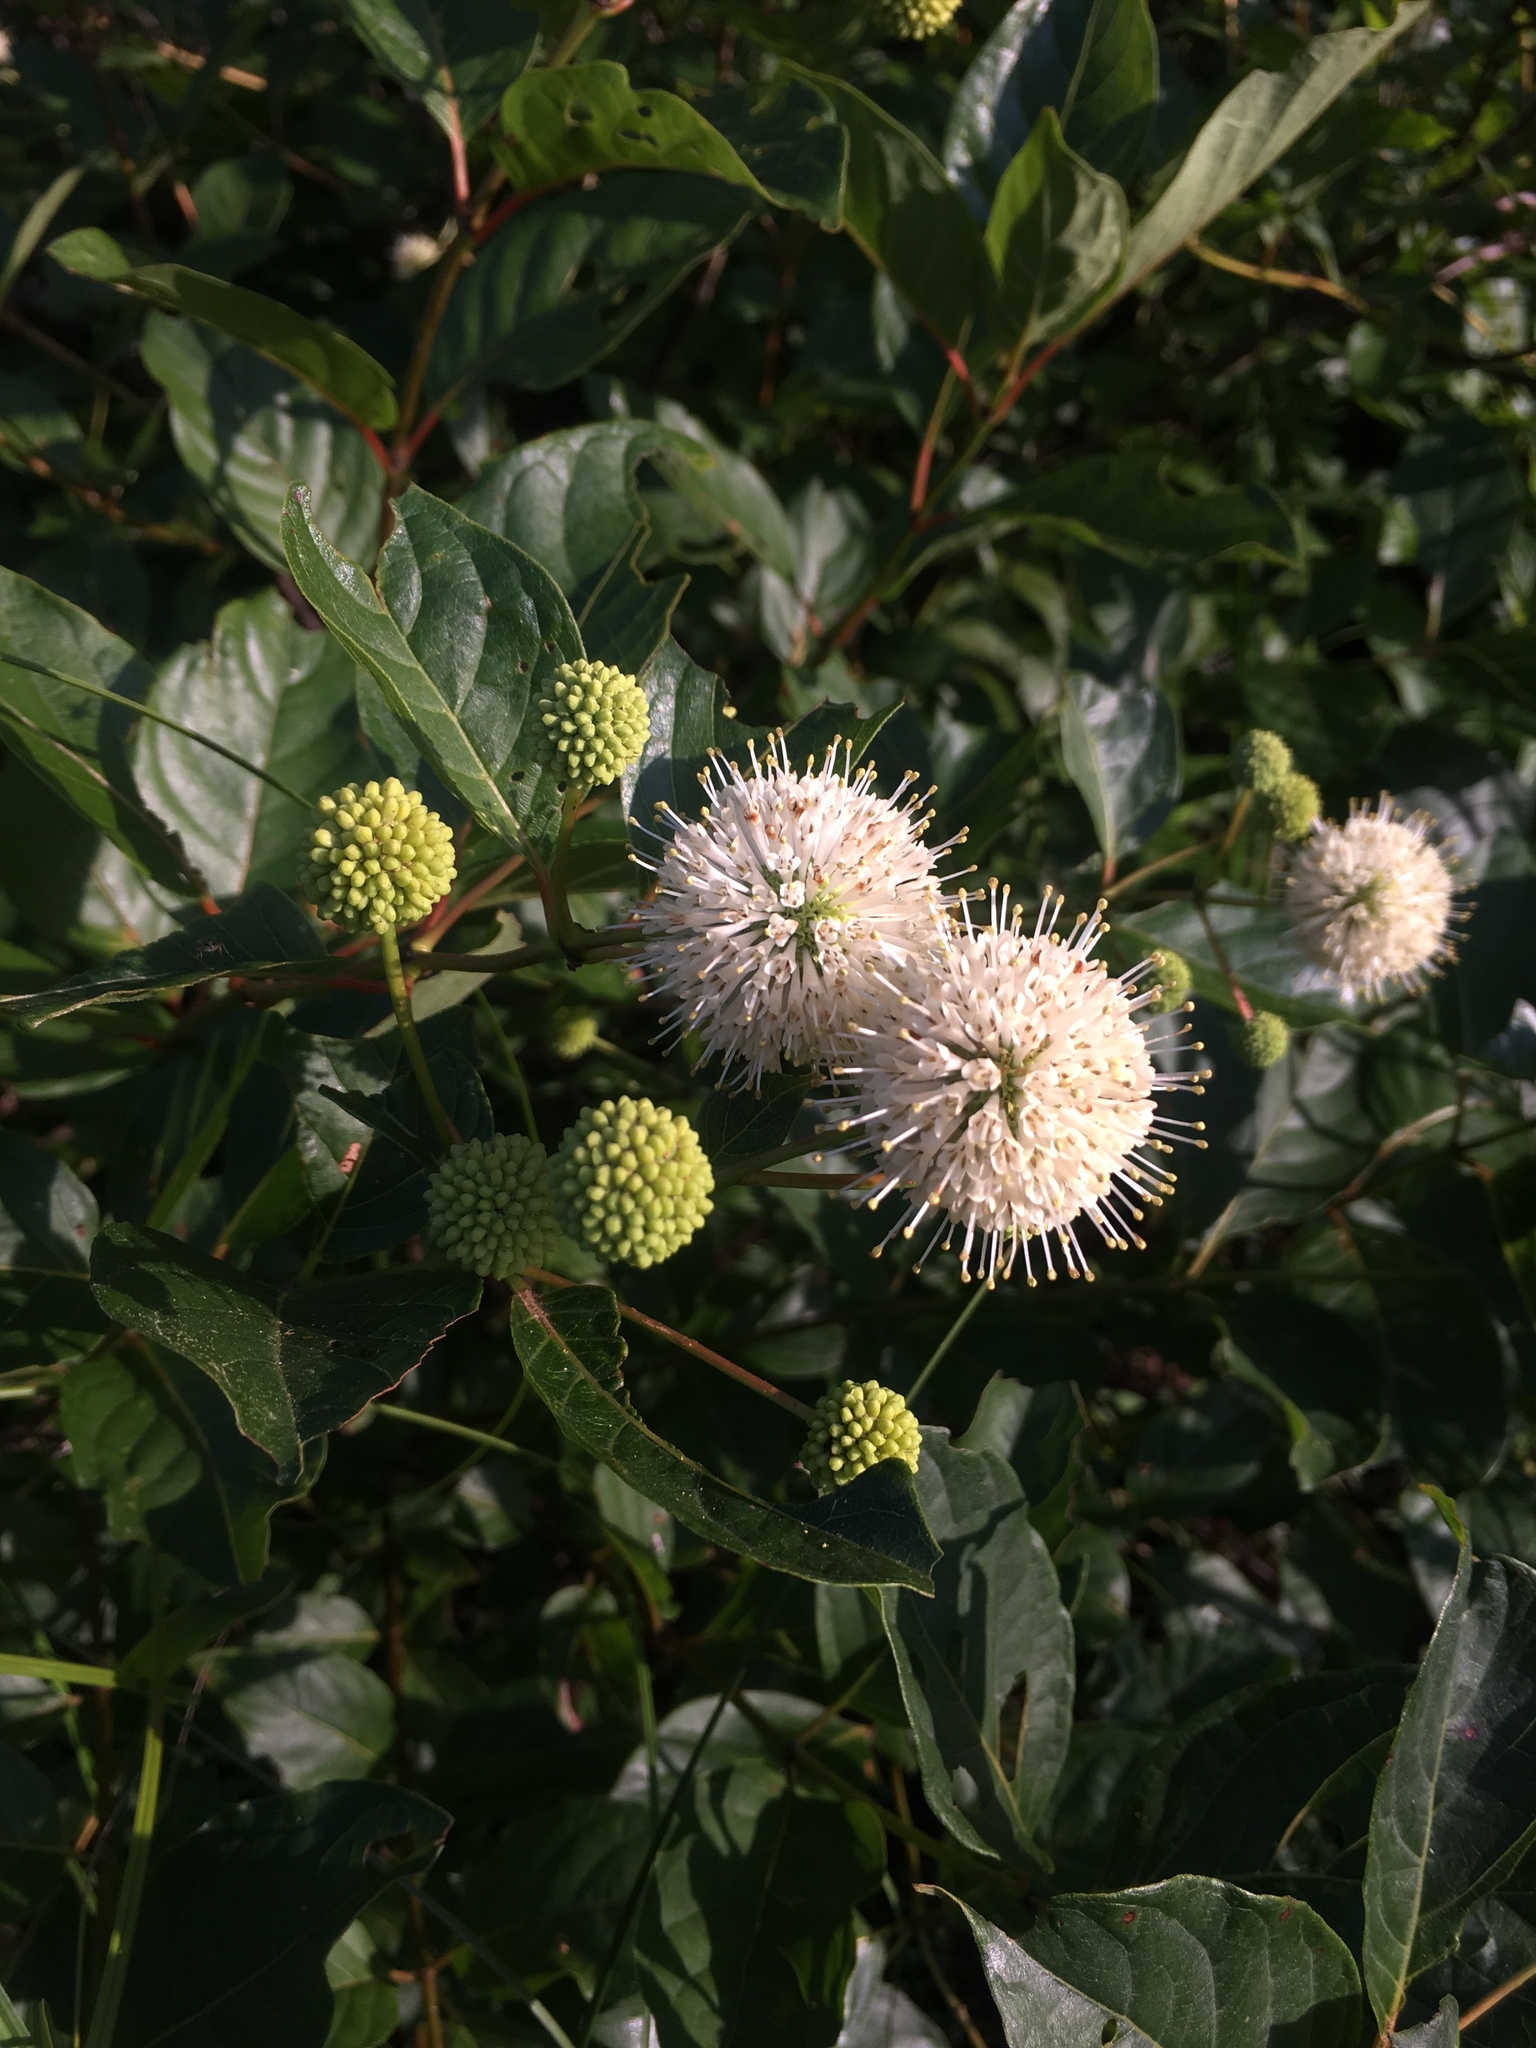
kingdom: Plantae
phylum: Tracheophyta
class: Magnoliopsida
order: Gentianales
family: Rubiaceae
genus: Cephalanthus
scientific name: Cephalanthus occidentalis
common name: Button-willow
